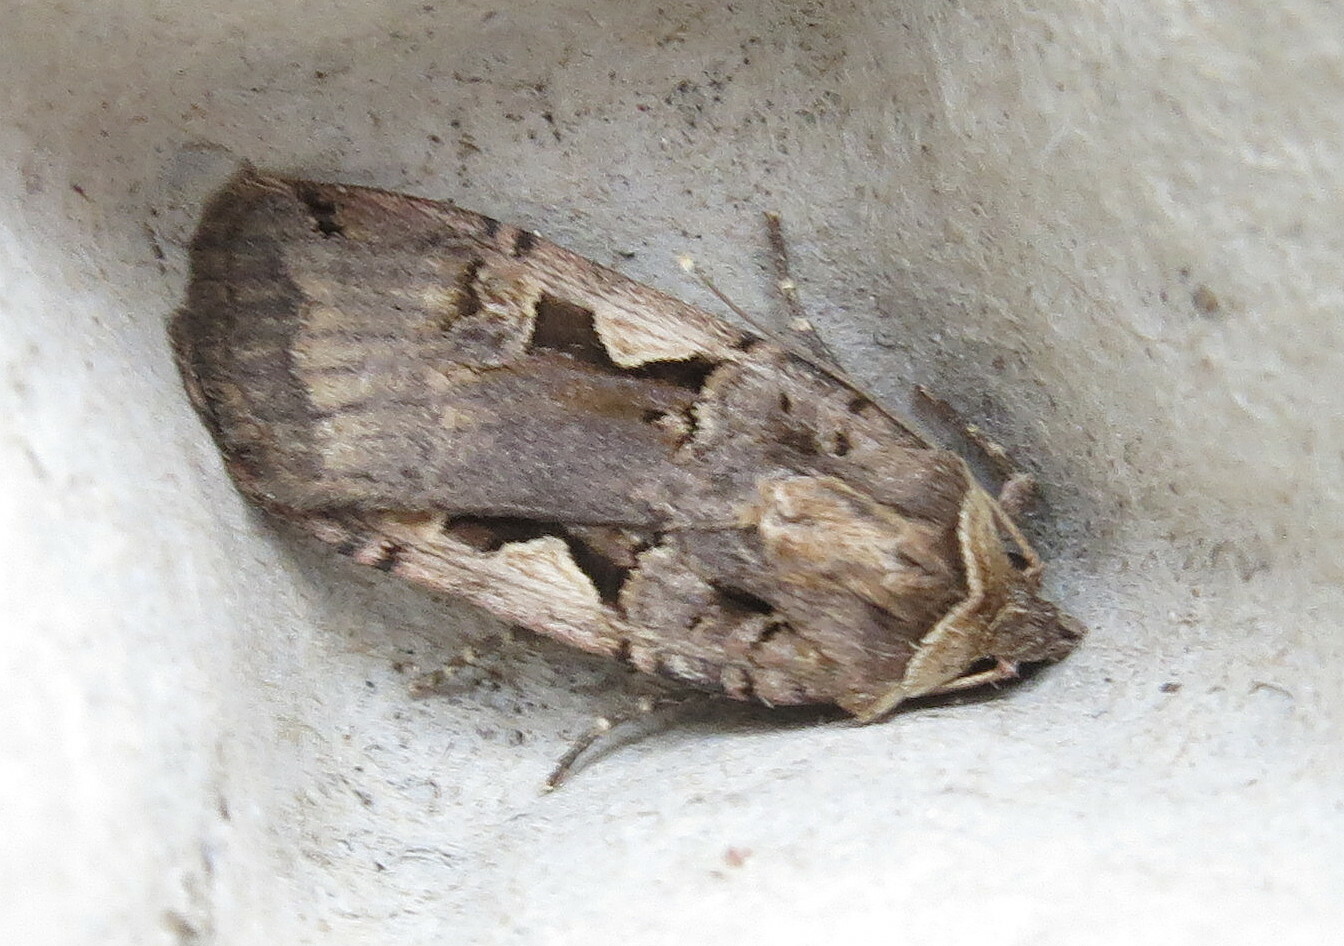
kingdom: Animalia
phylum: Arthropoda
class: Insecta
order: Lepidoptera
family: Noctuidae
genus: Xestia
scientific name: Xestia c-nigrum
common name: Setaceous hebrew character
